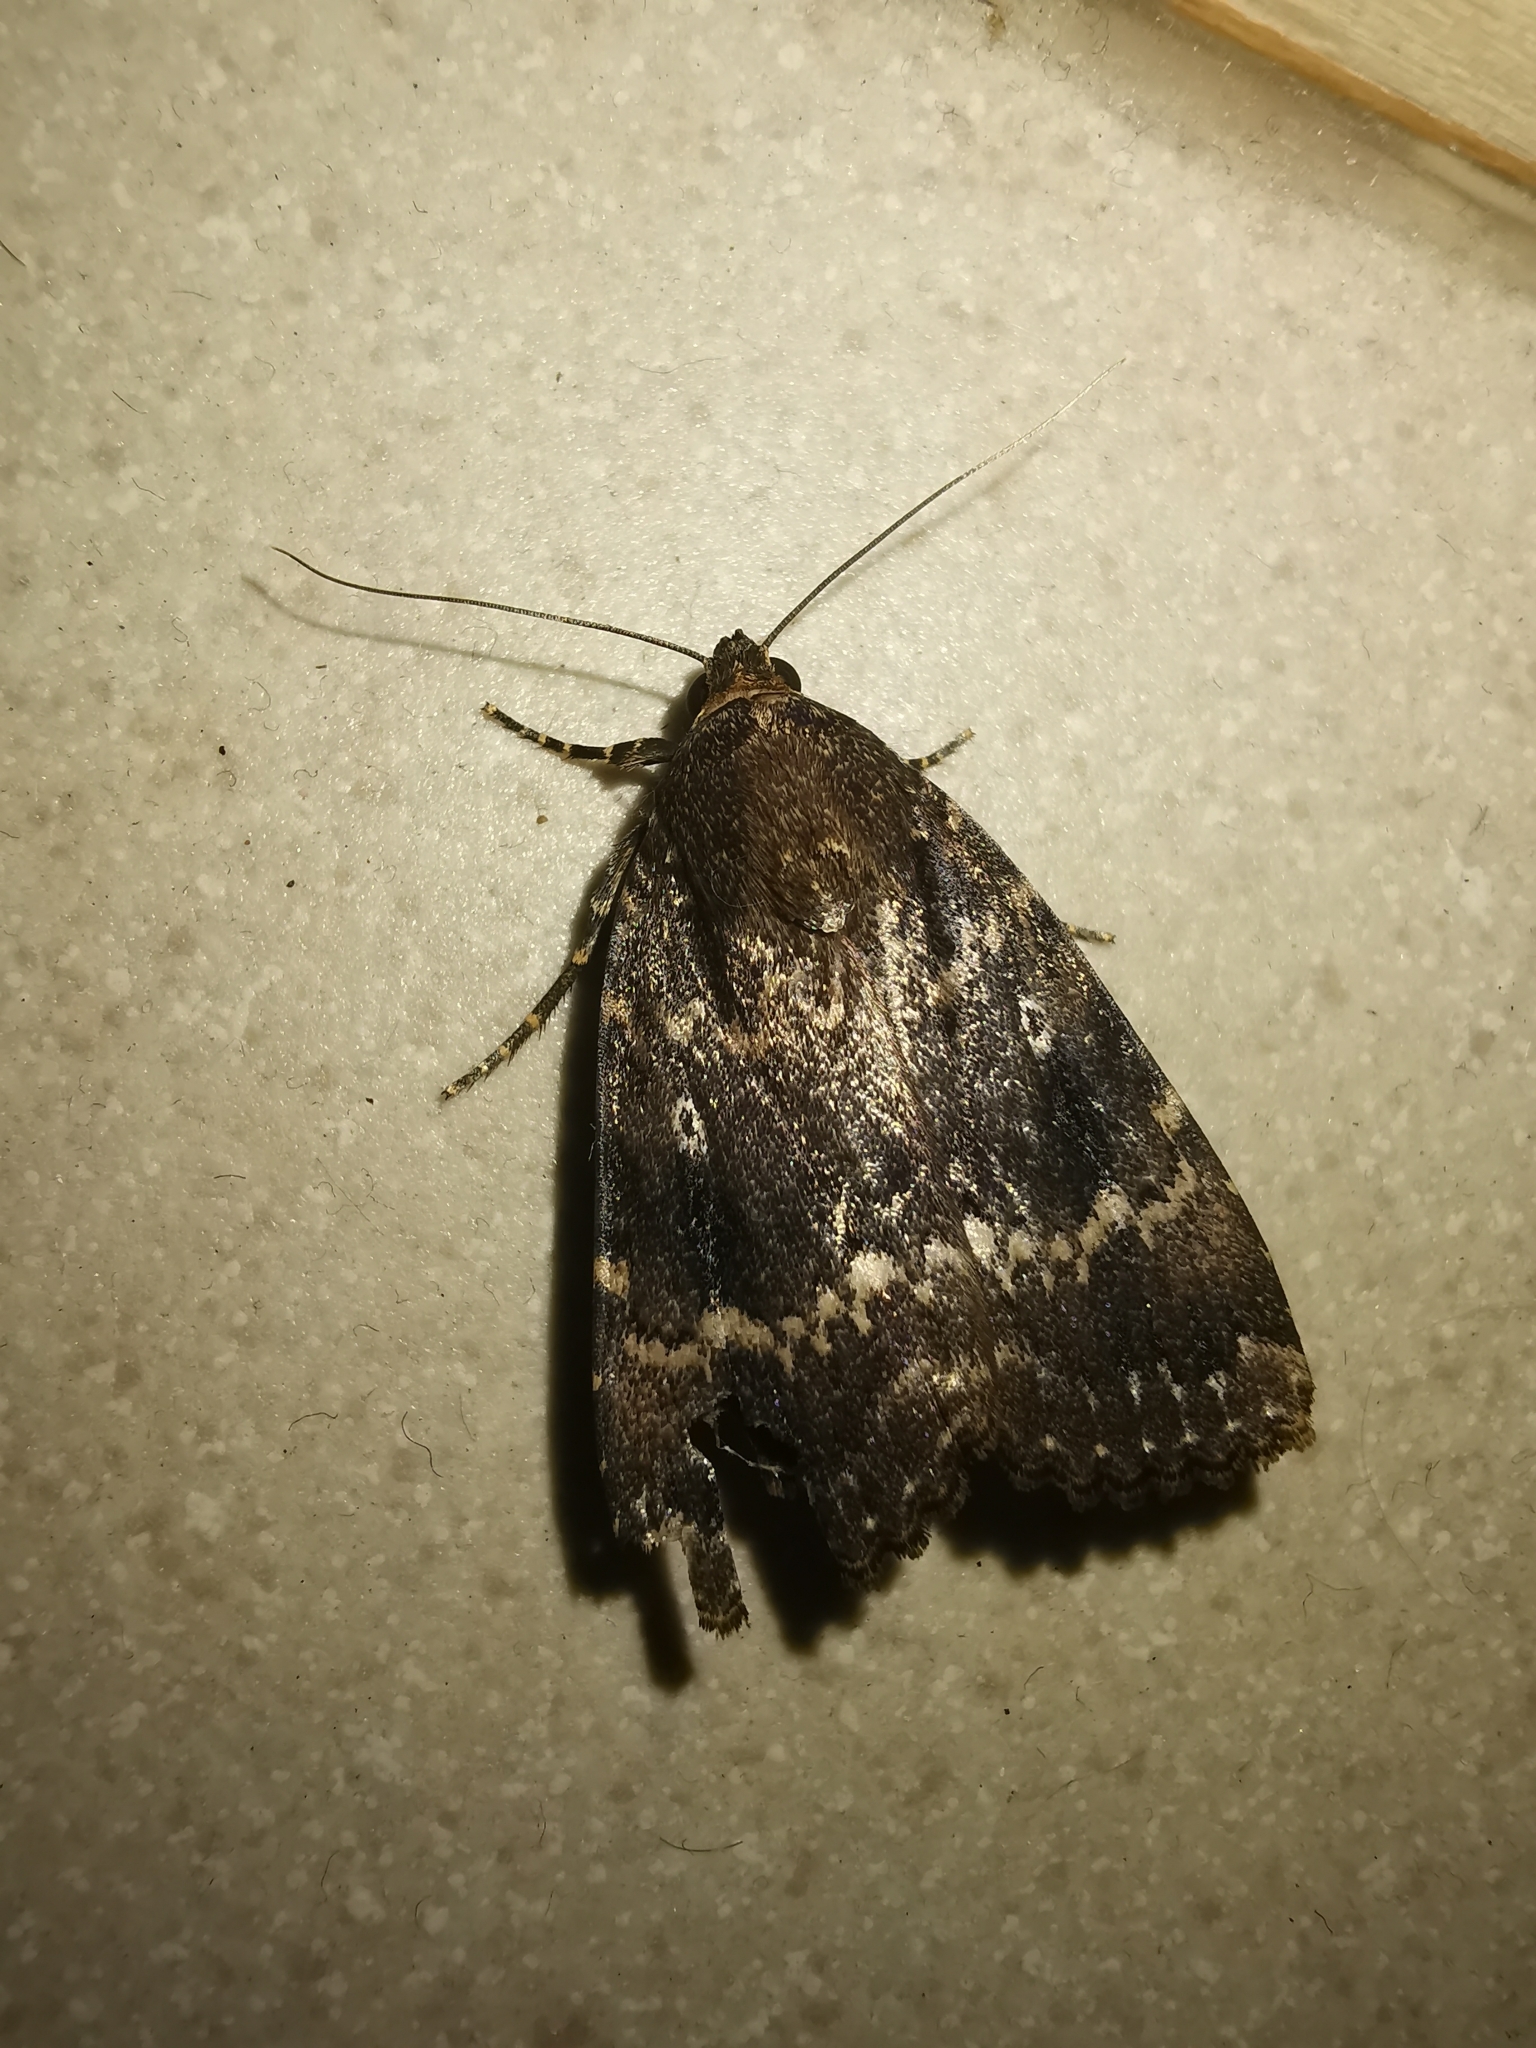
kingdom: Animalia
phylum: Arthropoda
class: Insecta
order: Lepidoptera
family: Noctuidae
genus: Amphipyra
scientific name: Amphipyra pyramidea
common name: Copper underwing
